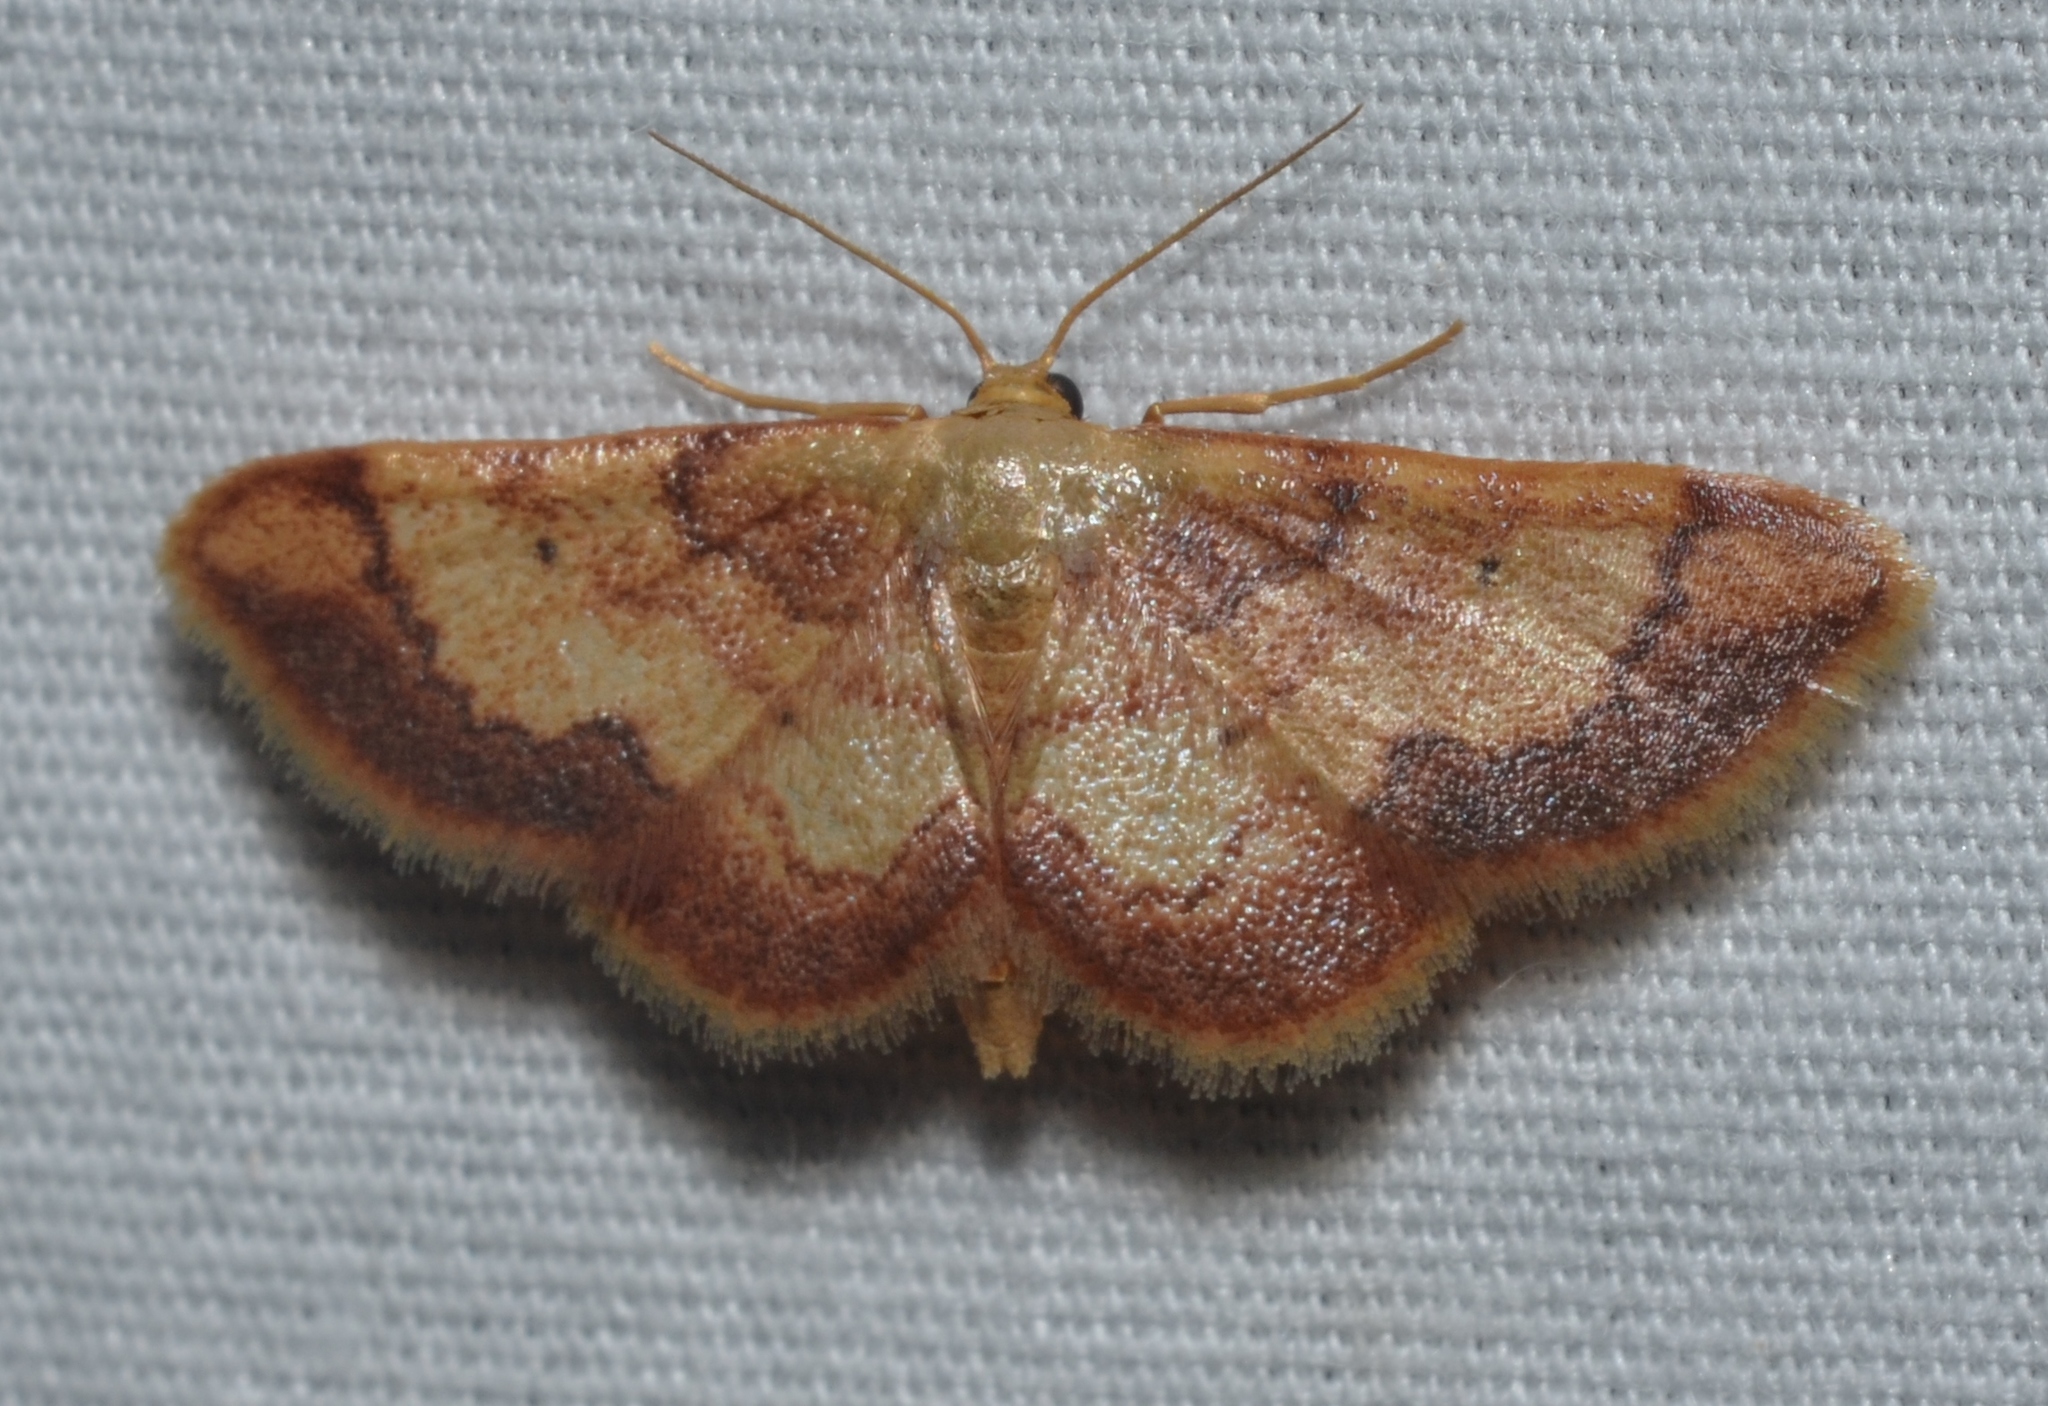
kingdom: Animalia
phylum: Arthropoda
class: Insecta
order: Lepidoptera
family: Geometridae
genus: Idaea
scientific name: Idaea demissaria
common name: Red-bordered wave
